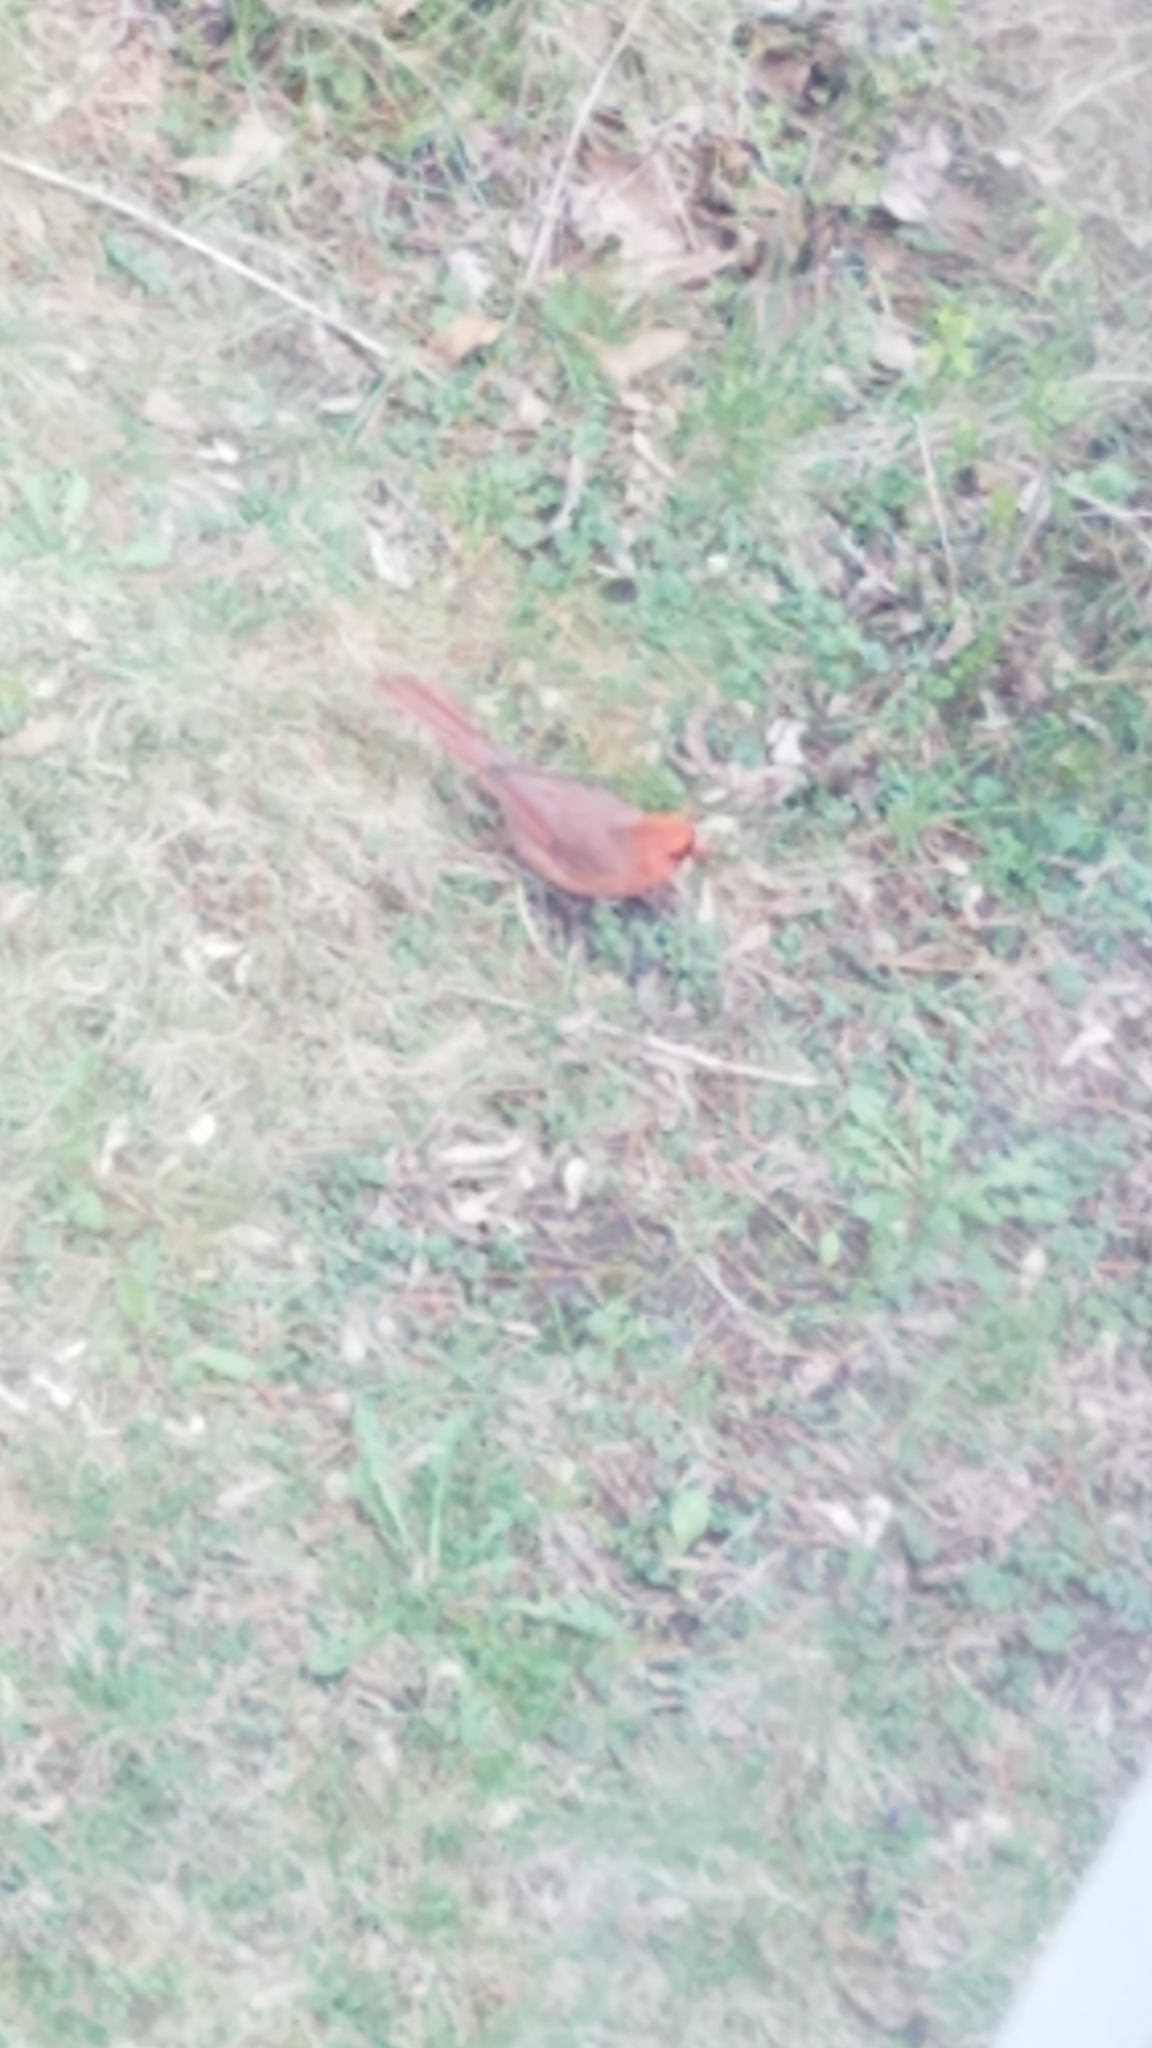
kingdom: Animalia
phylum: Chordata
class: Aves
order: Passeriformes
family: Cardinalidae
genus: Cardinalis
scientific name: Cardinalis cardinalis
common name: Northern cardinal
